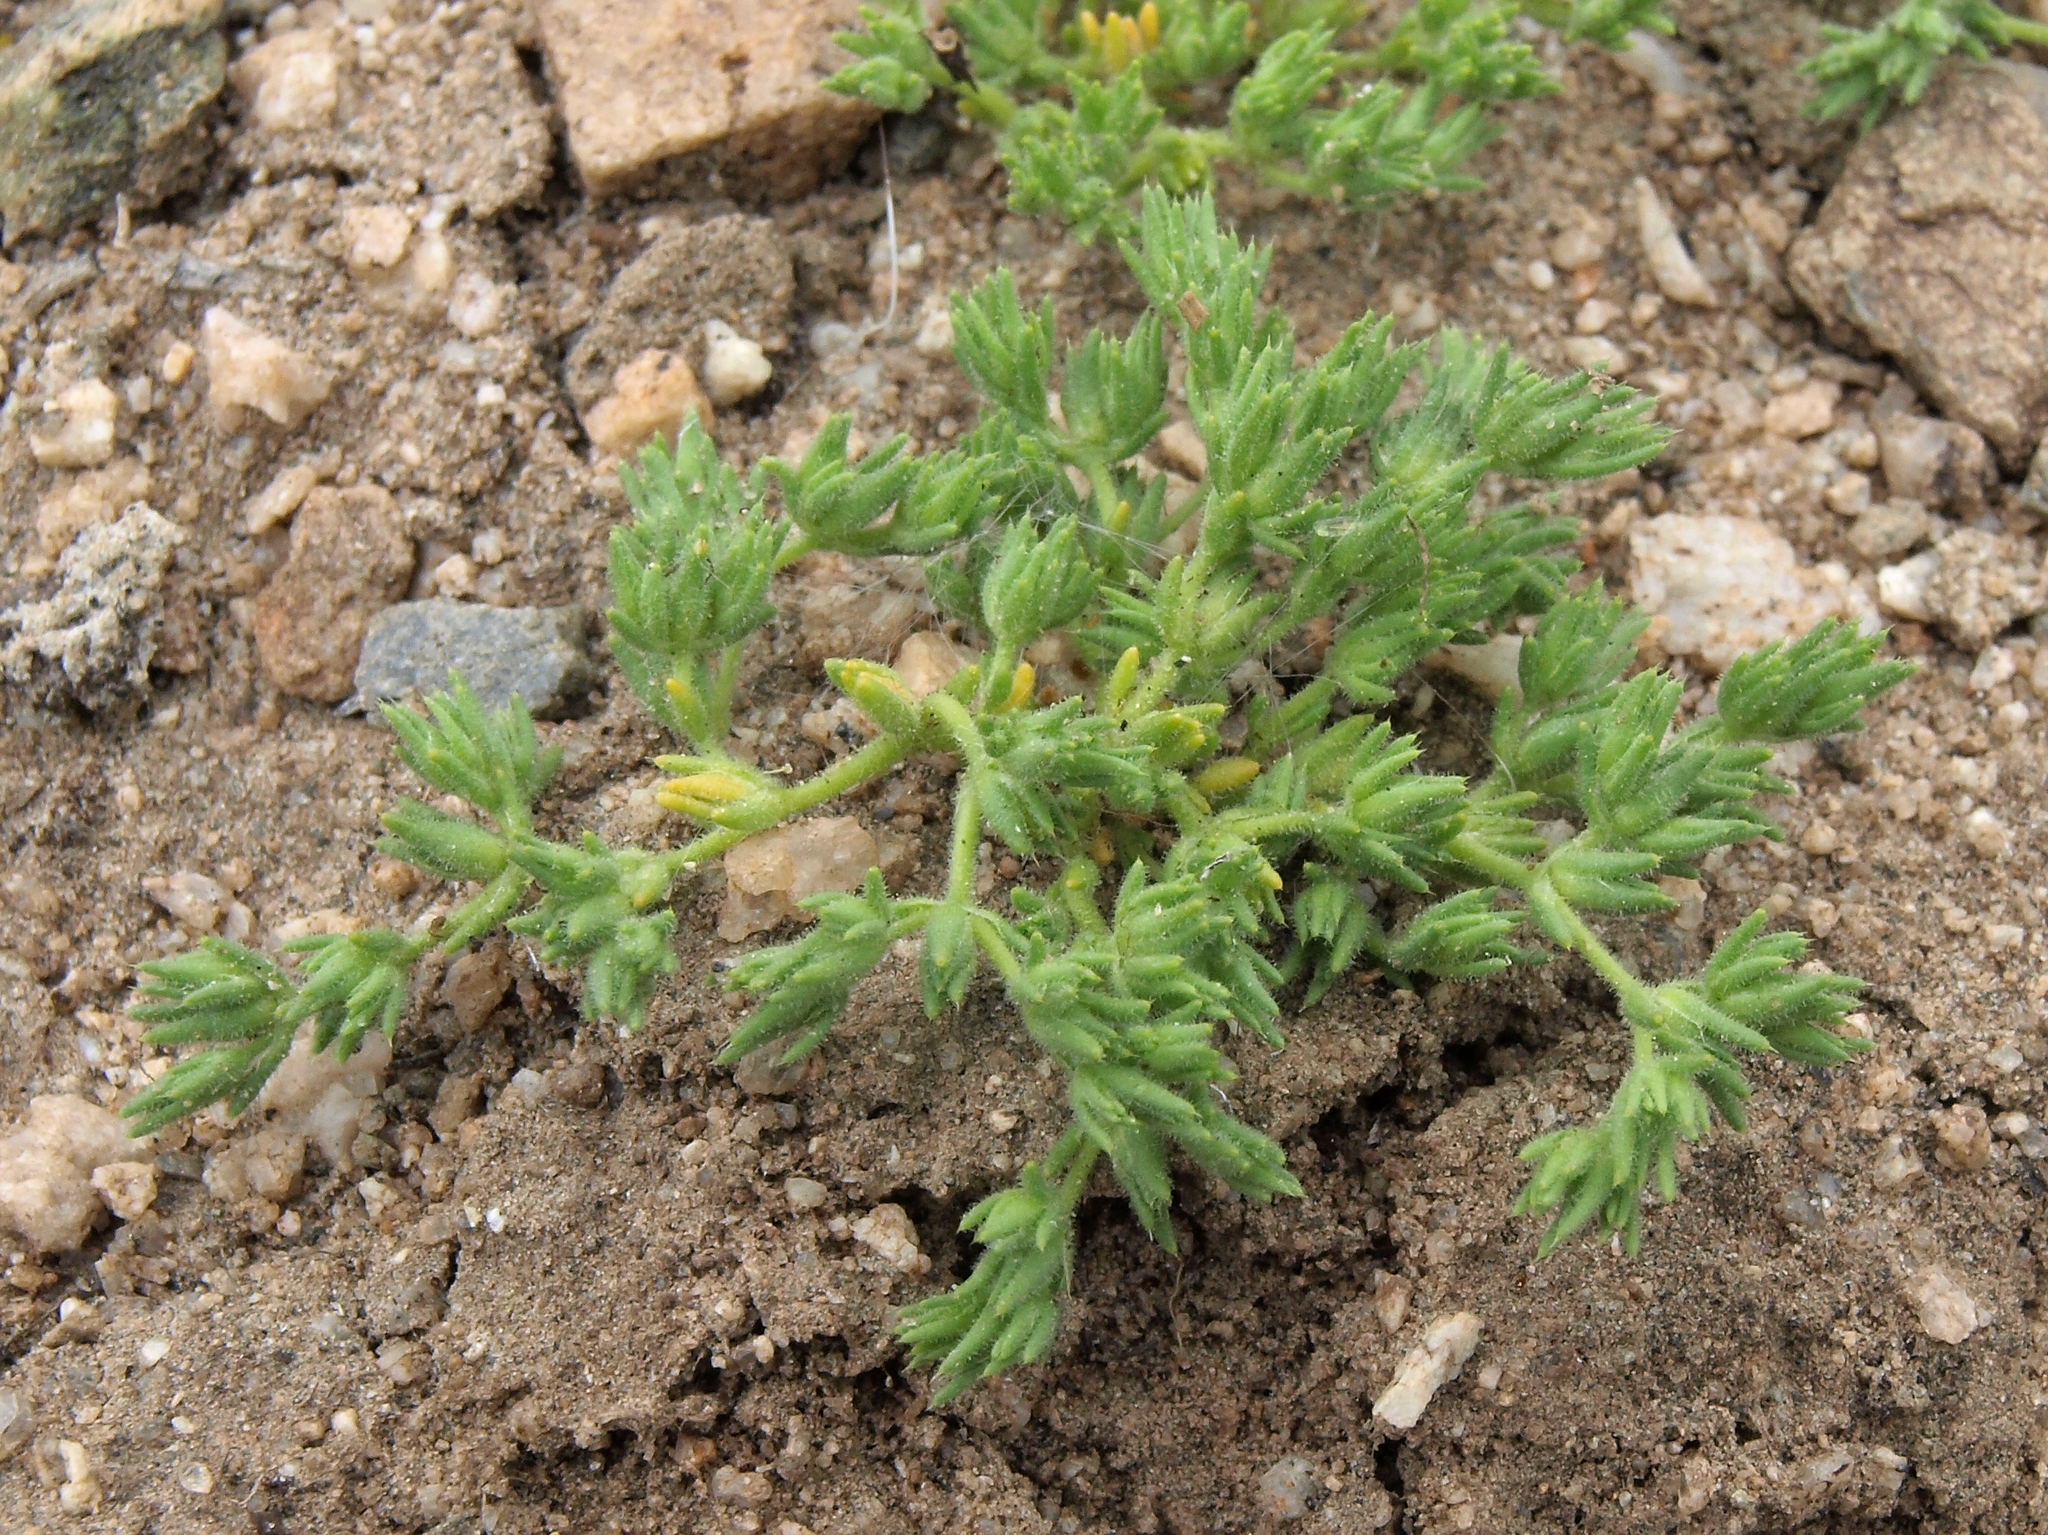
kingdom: Plantae
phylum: Tracheophyta
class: Magnoliopsida
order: Caryophyllales
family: Caryophyllaceae
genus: Loeflingia
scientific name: Loeflingia squarrosa
